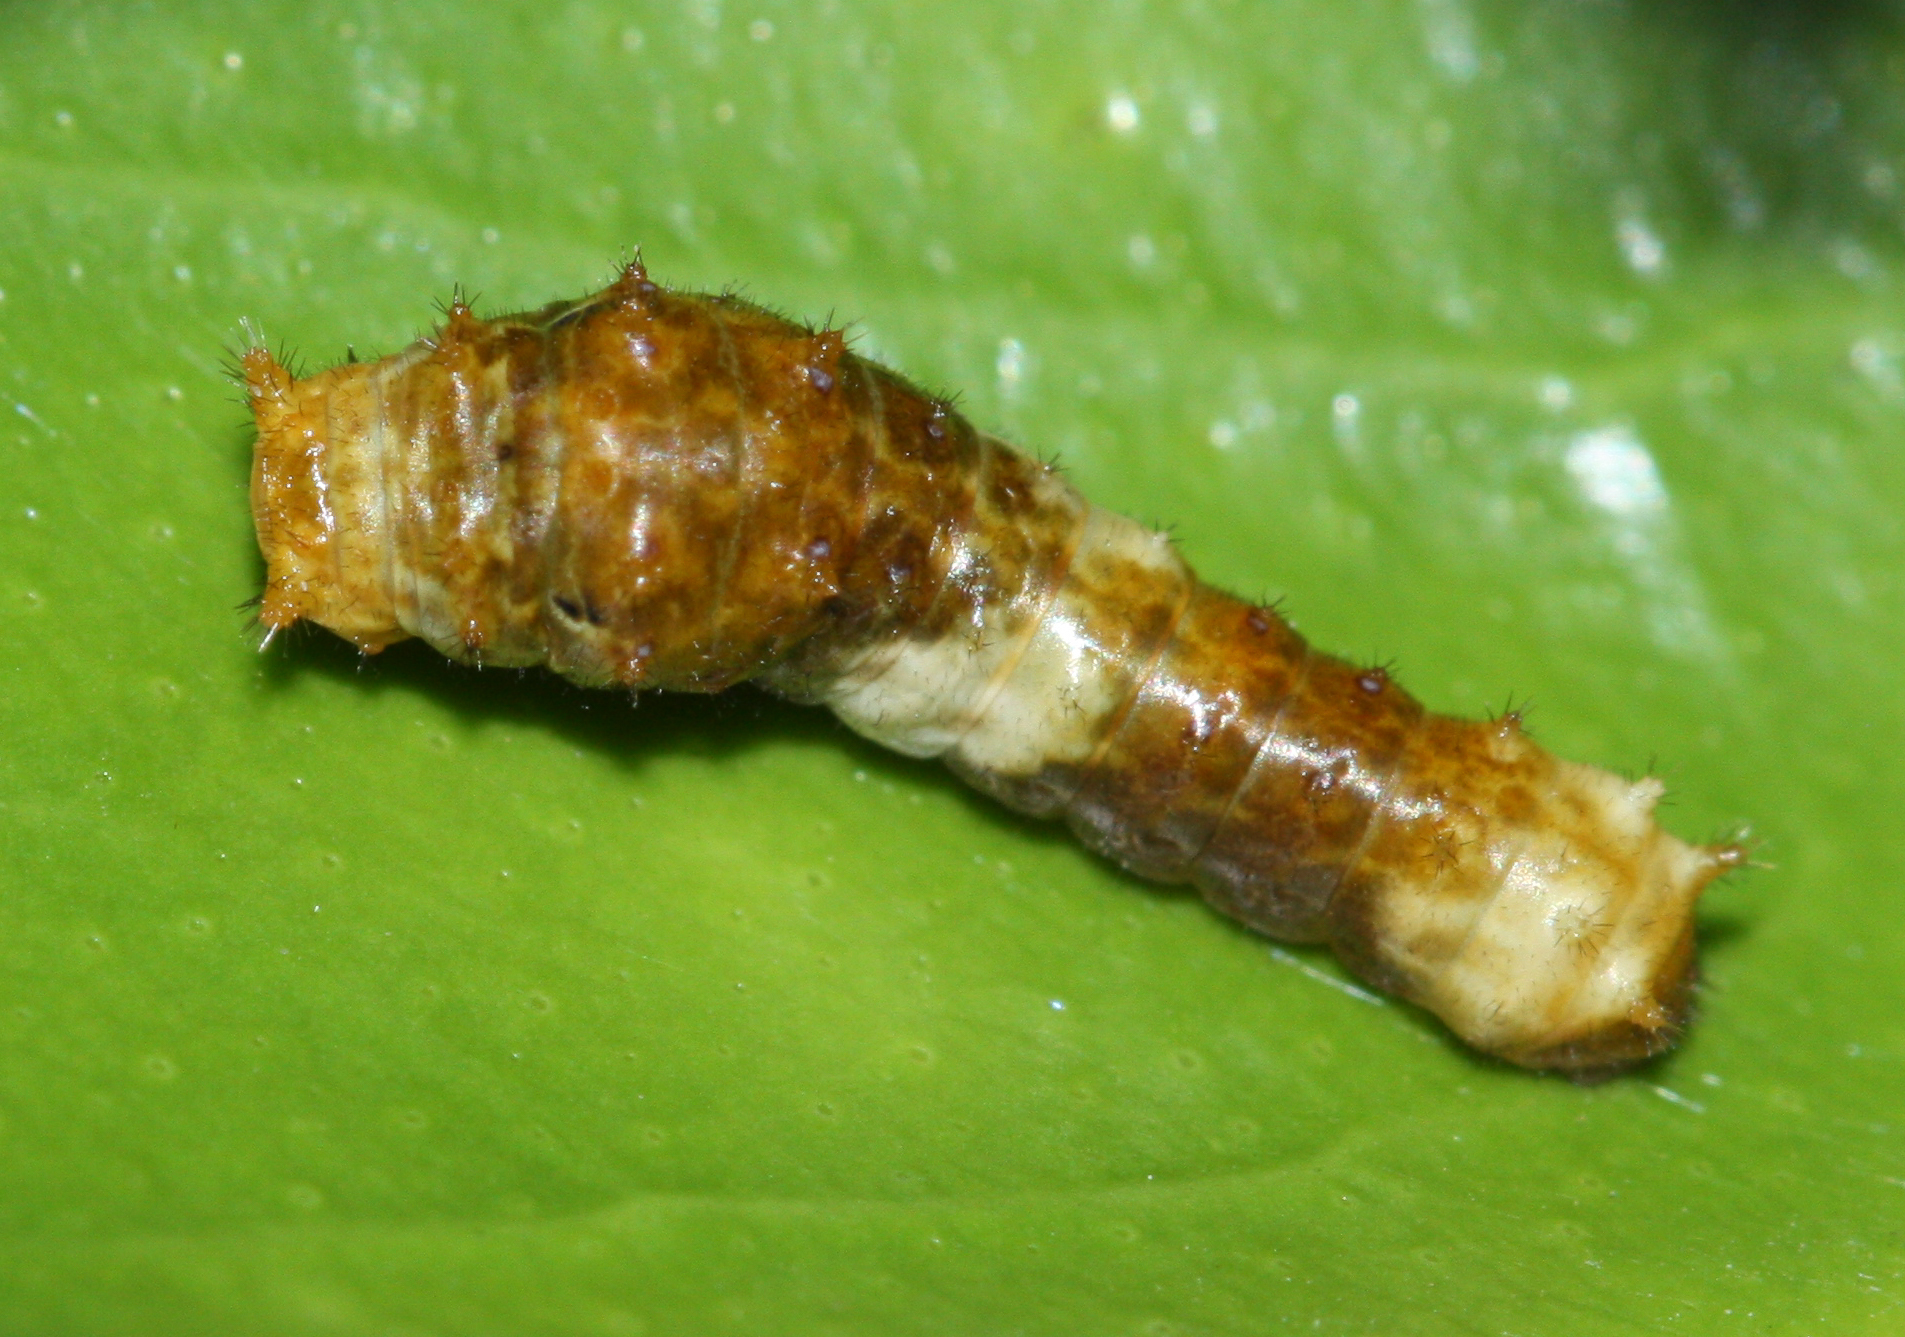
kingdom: Animalia
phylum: Arthropoda
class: Insecta
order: Lepidoptera
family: Papilionidae
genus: Papilio
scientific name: Papilio rumiko
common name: Western giant swallowtail
